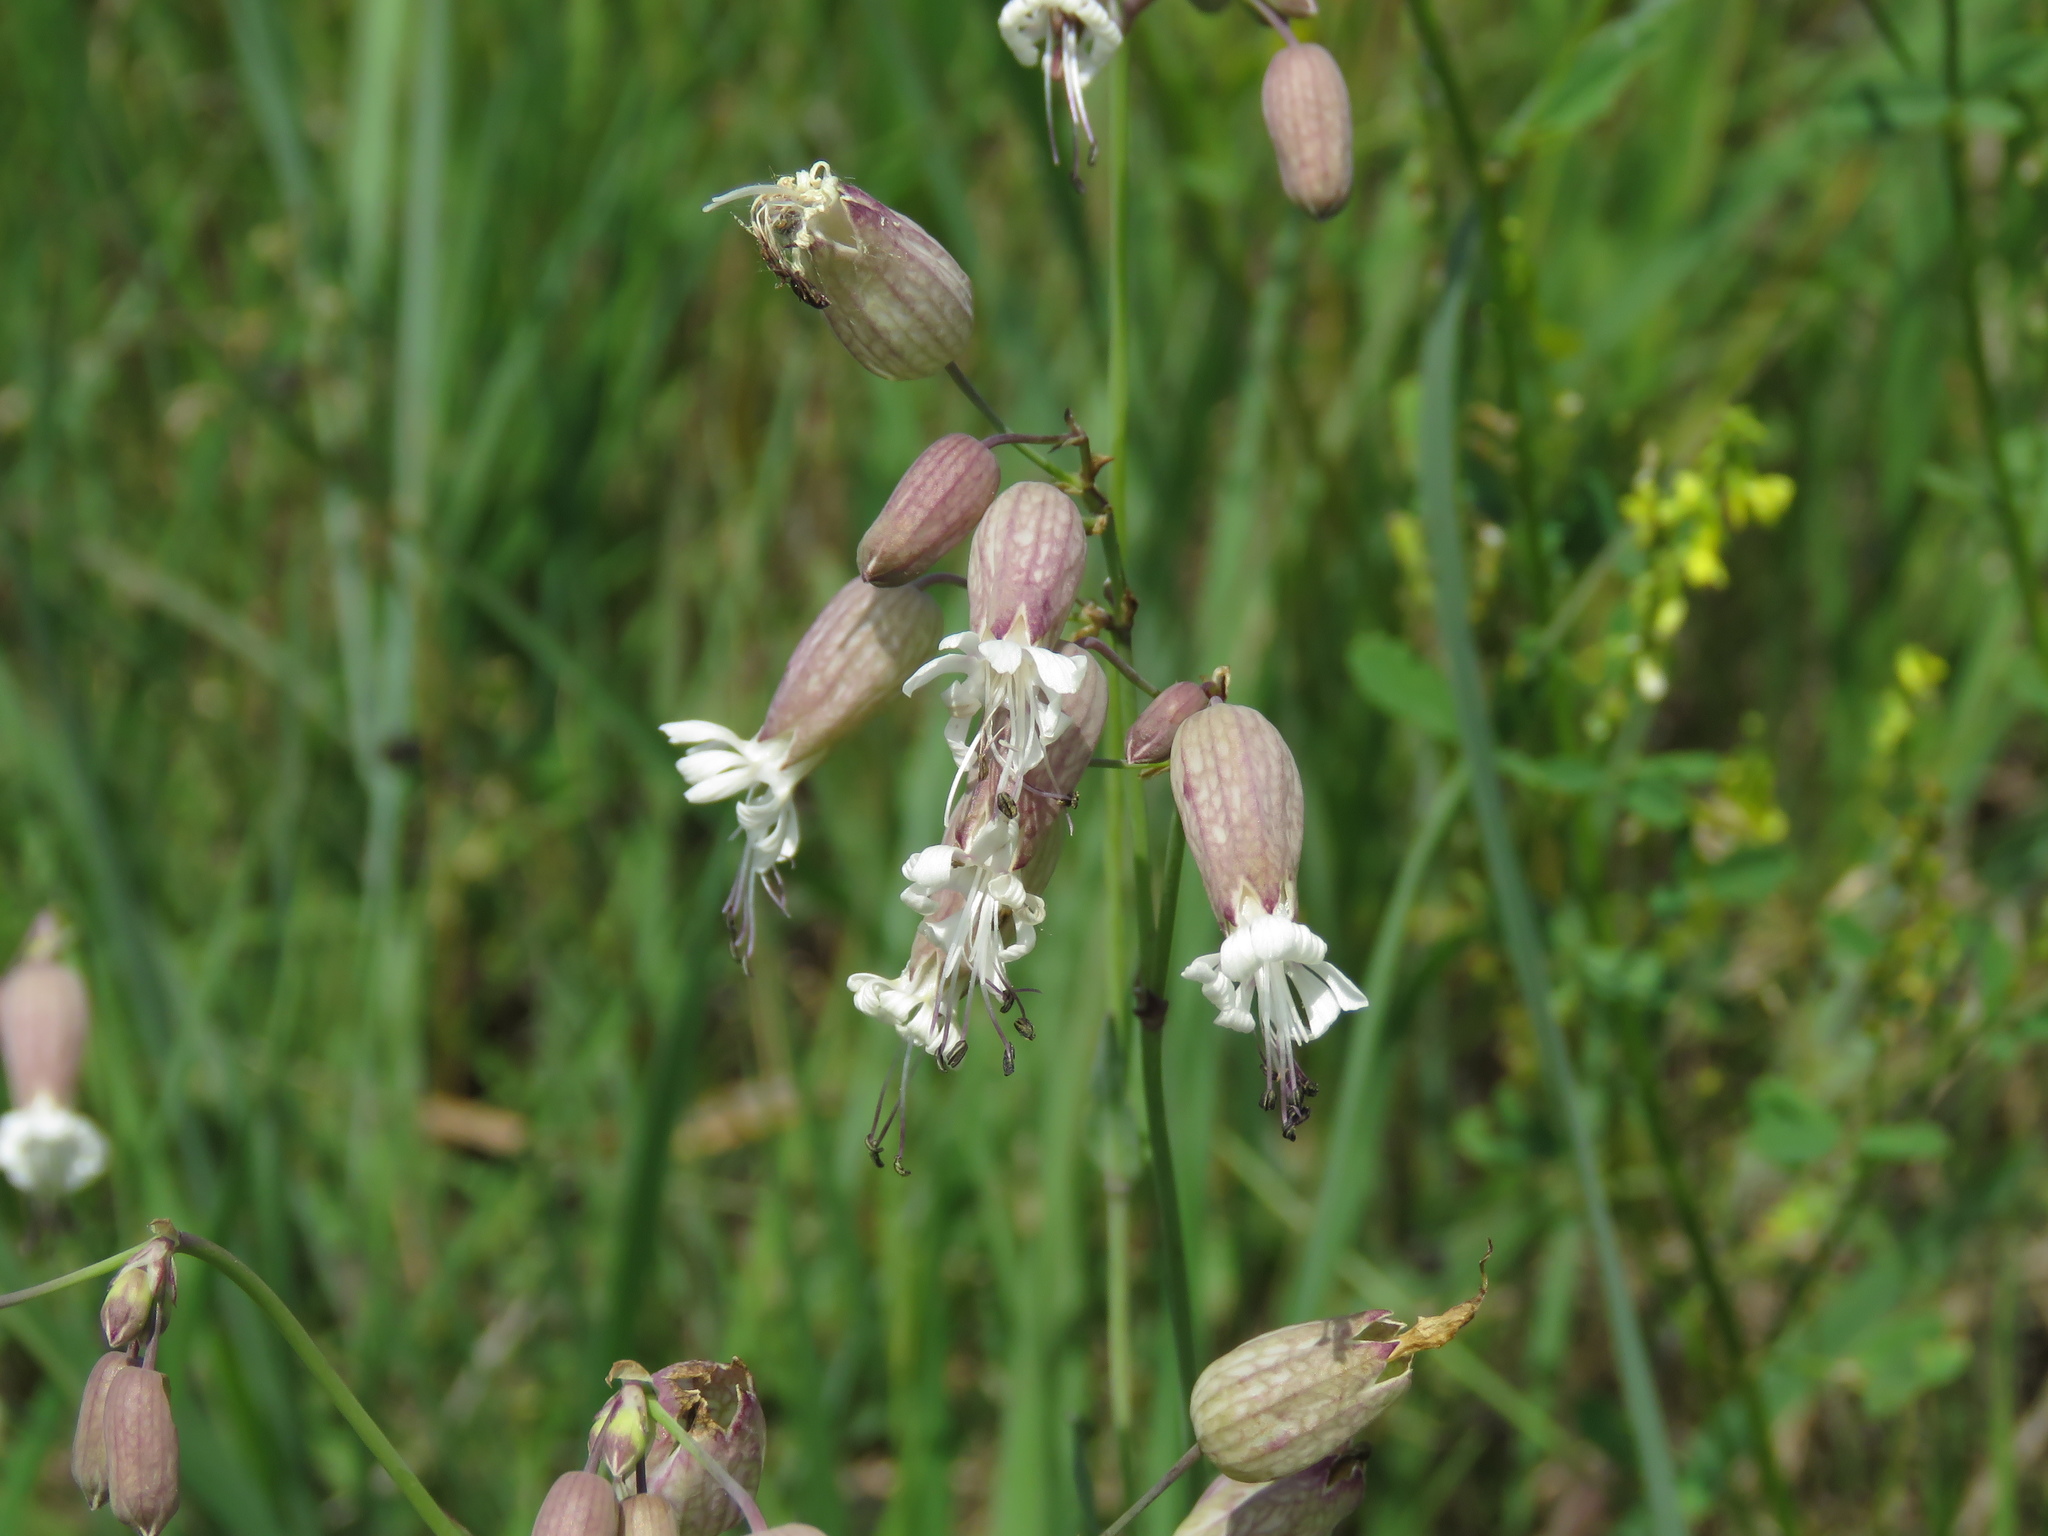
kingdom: Plantae
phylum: Tracheophyta
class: Magnoliopsida
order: Caryophyllales
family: Caryophyllaceae
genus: Silene
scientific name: Silene vulgaris
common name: Bladder campion
